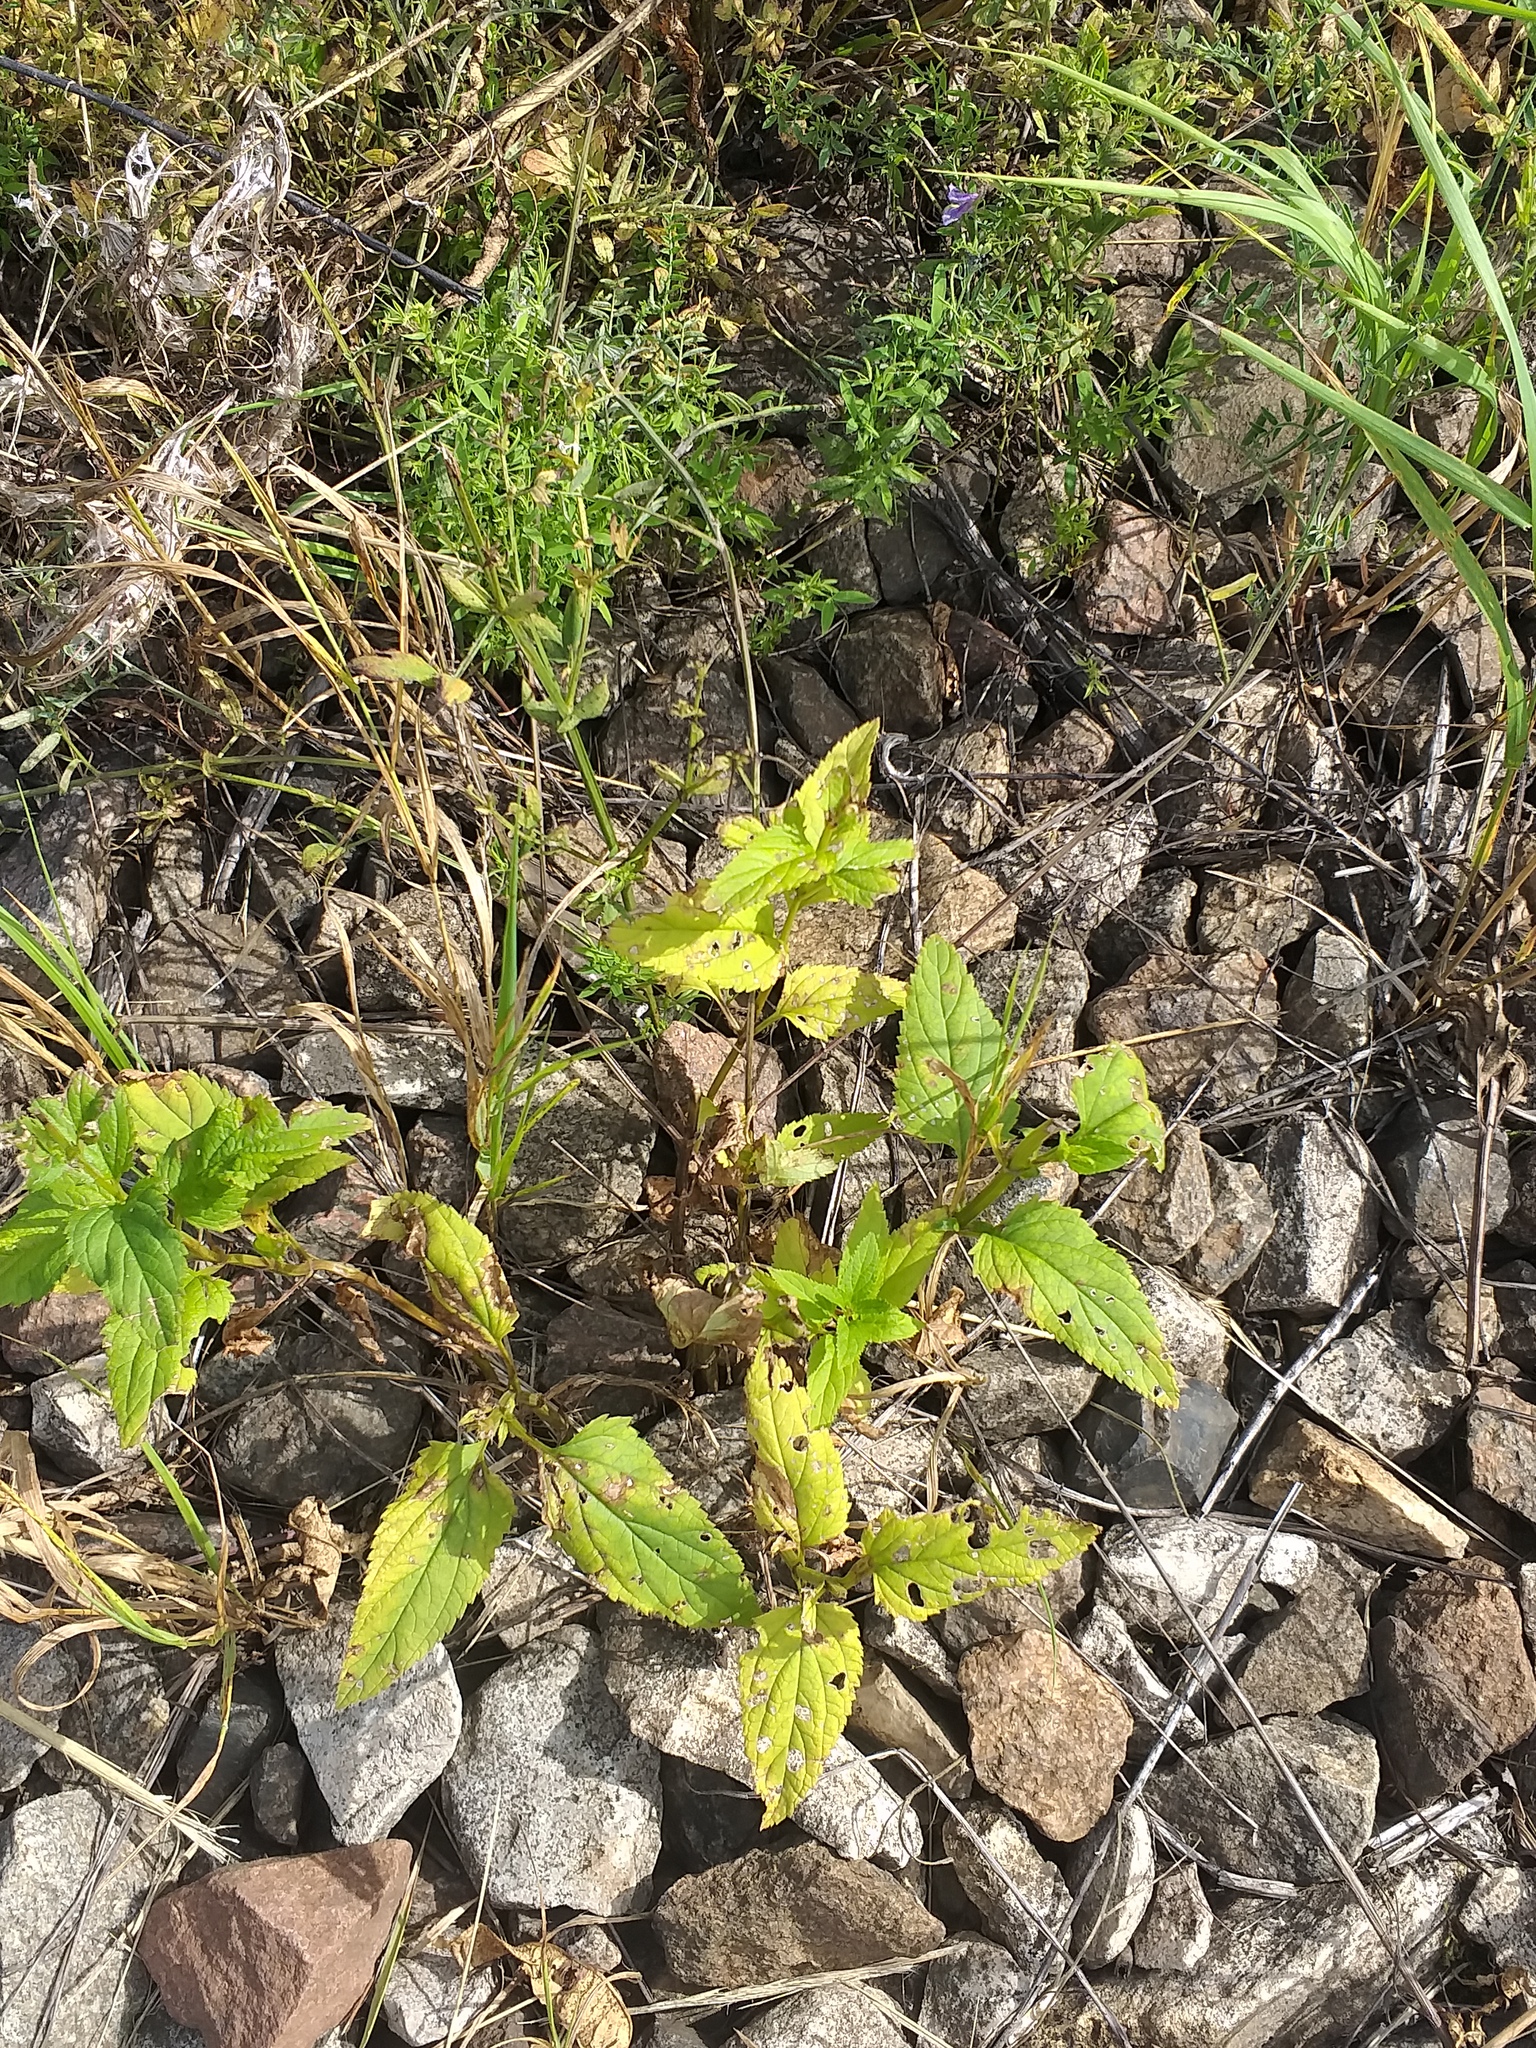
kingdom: Plantae
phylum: Tracheophyta
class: Magnoliopsida
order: Lamiales
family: Scrophulariaceae
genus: Scrophularia
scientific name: Scrophularia nodosa
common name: Common figwort
